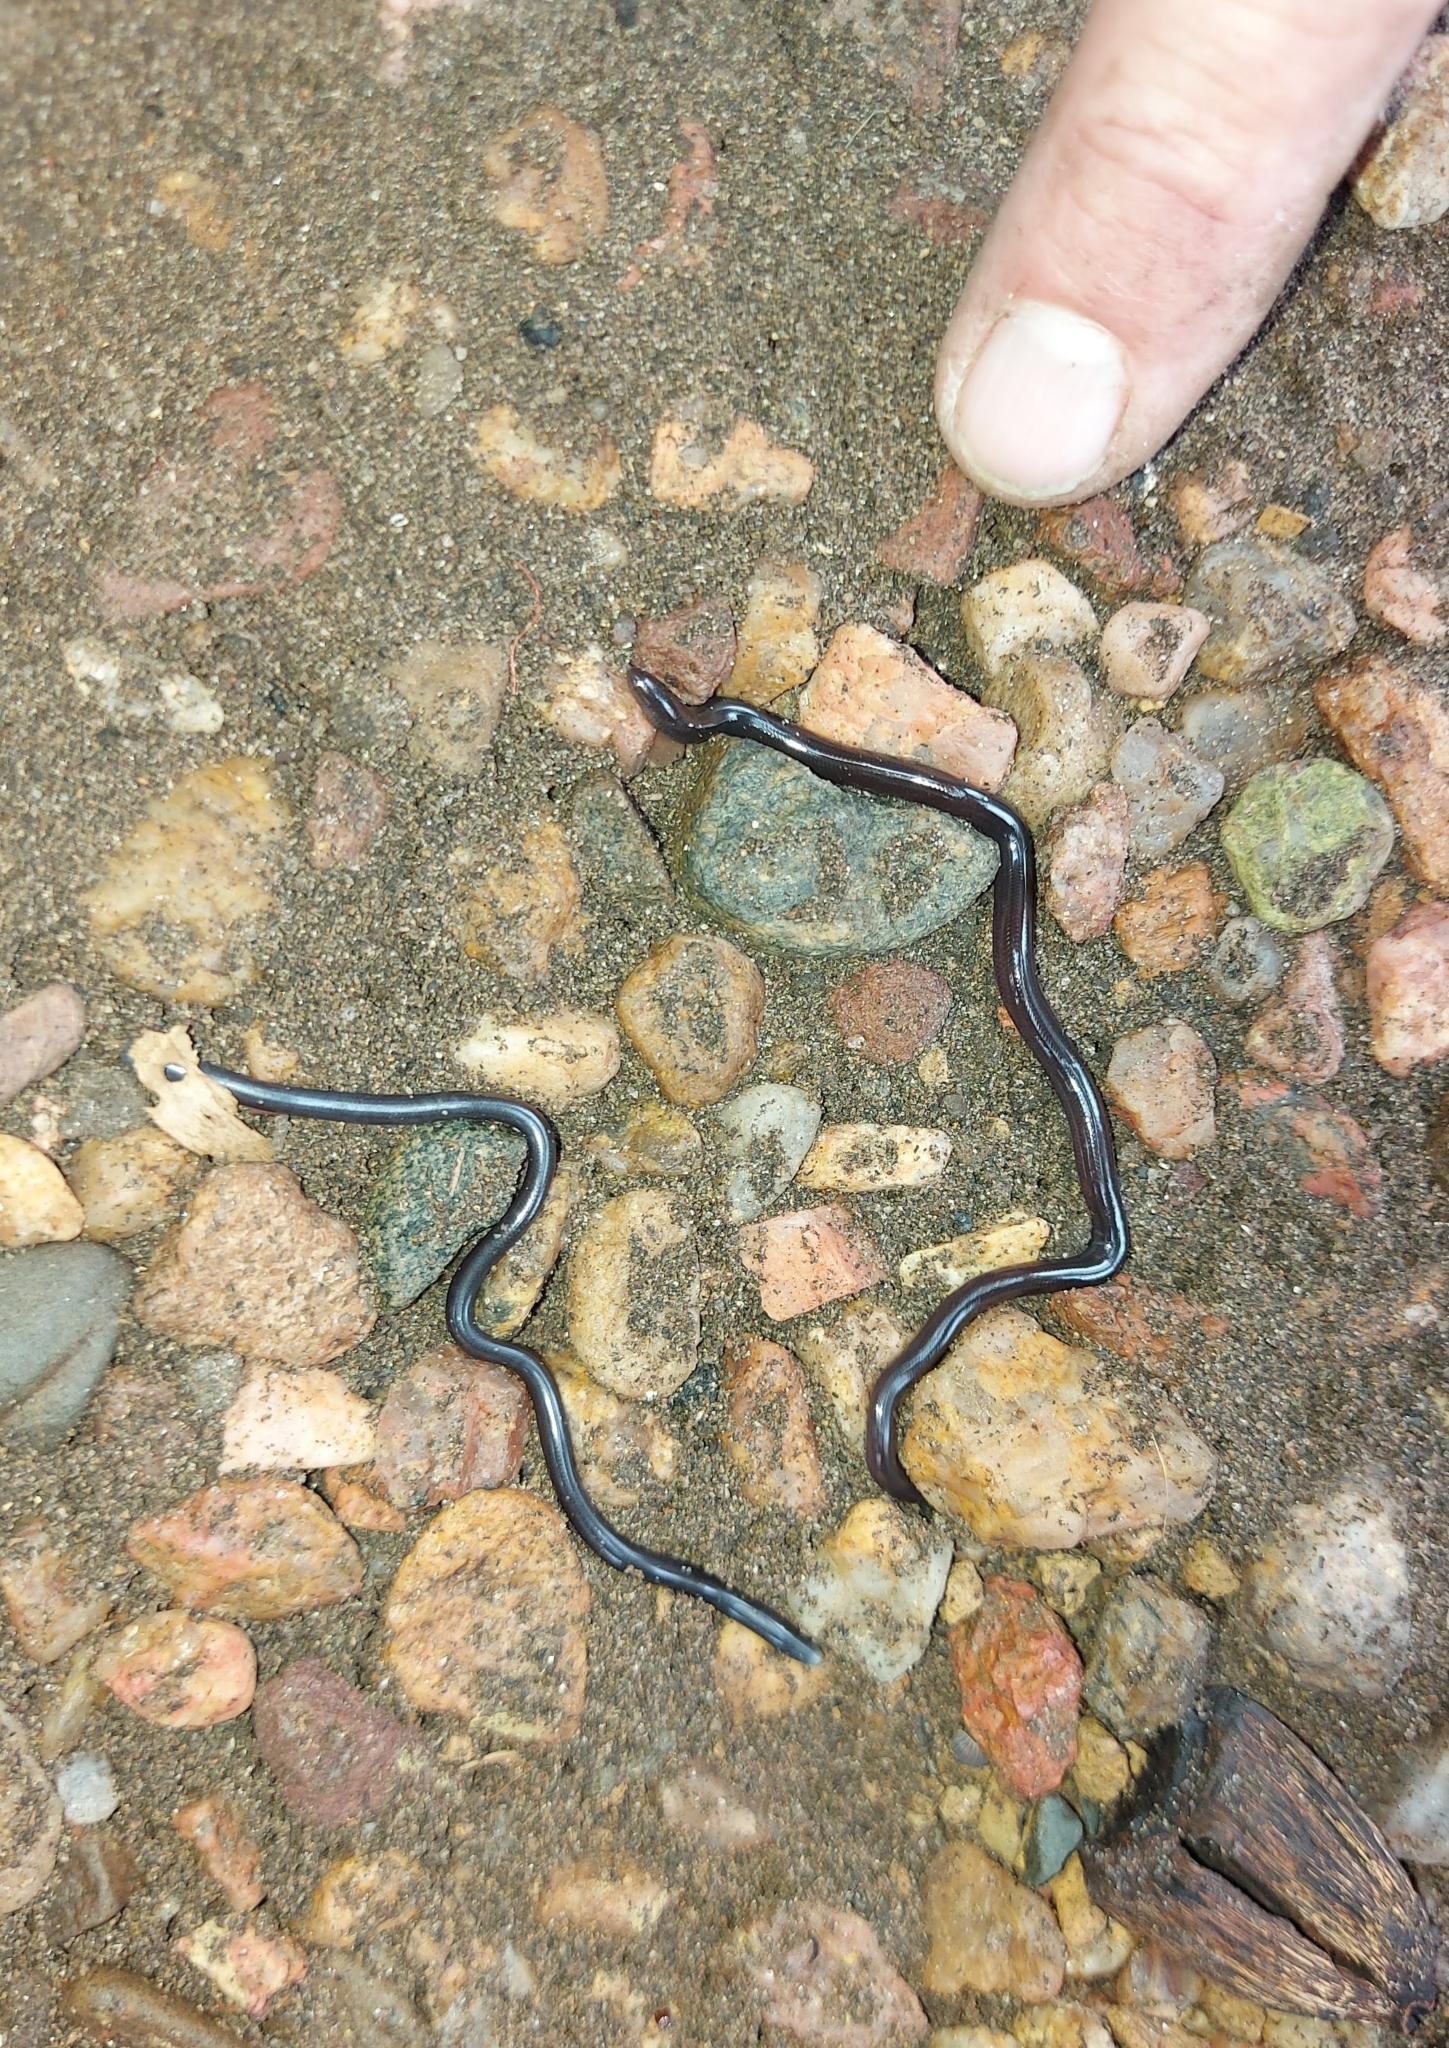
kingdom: Animalia
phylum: Chordata
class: Squamata
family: Typhlopidae
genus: Indotyphlops
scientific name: Indotyphlops braminus
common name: Brahminy blindsnake
